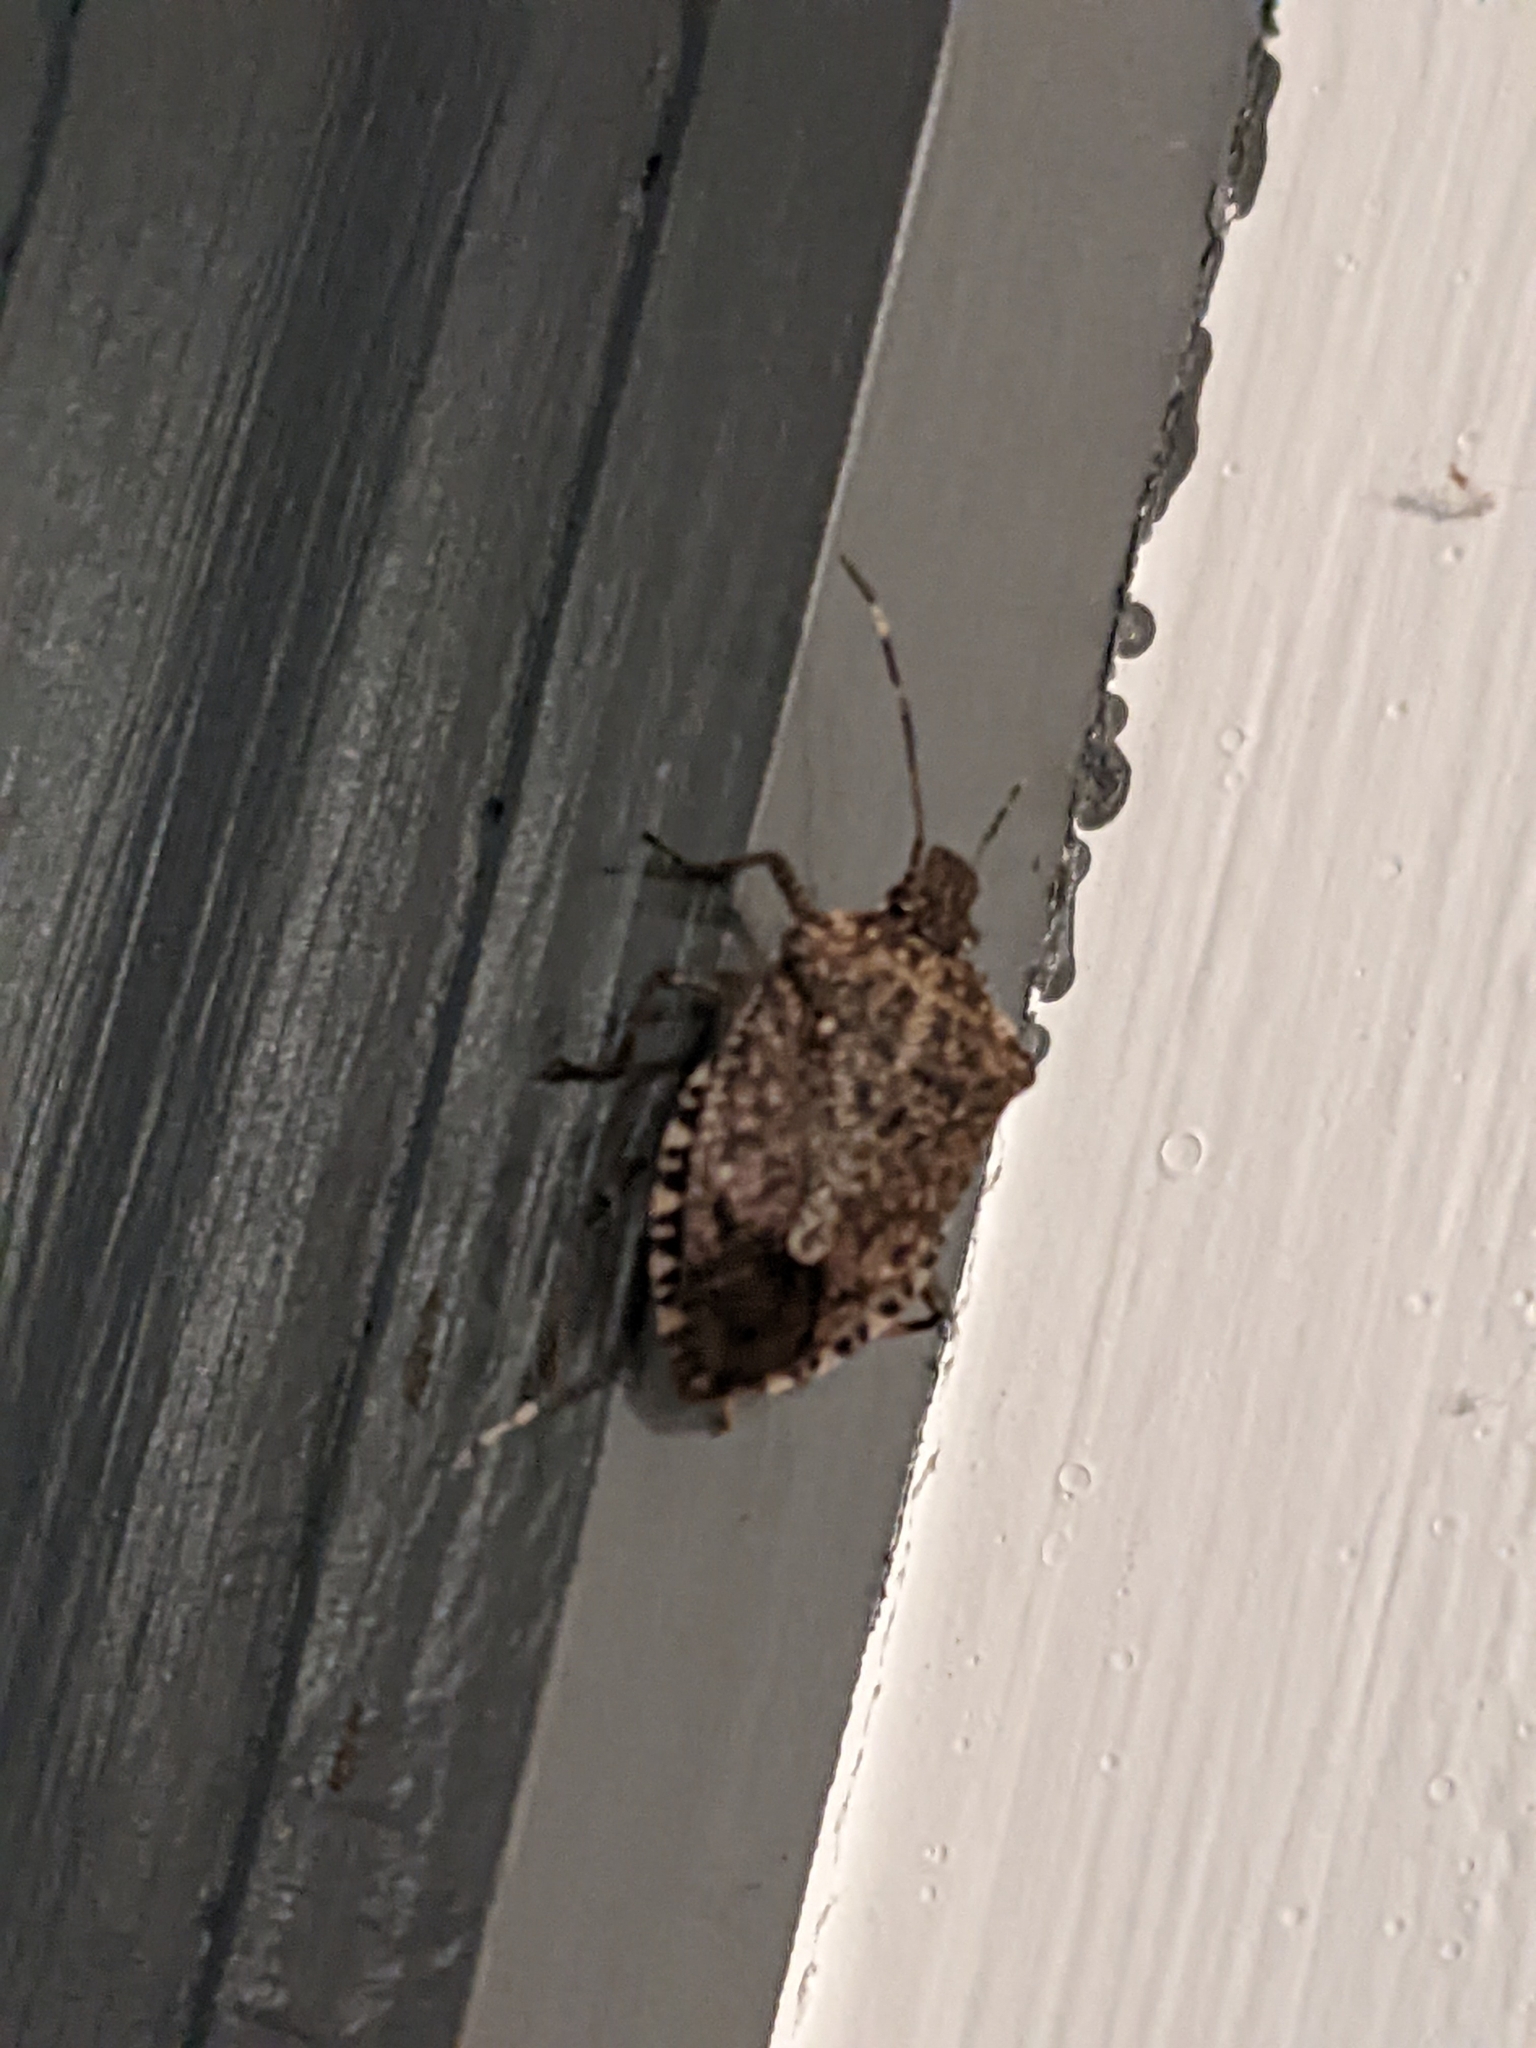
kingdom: Animalia
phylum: Arthropoda
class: Insecta
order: Hemiptera
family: Pentatomidae
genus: Halyomorpha
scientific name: Halyomorpha halys
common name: Brown marmorated stink bug
